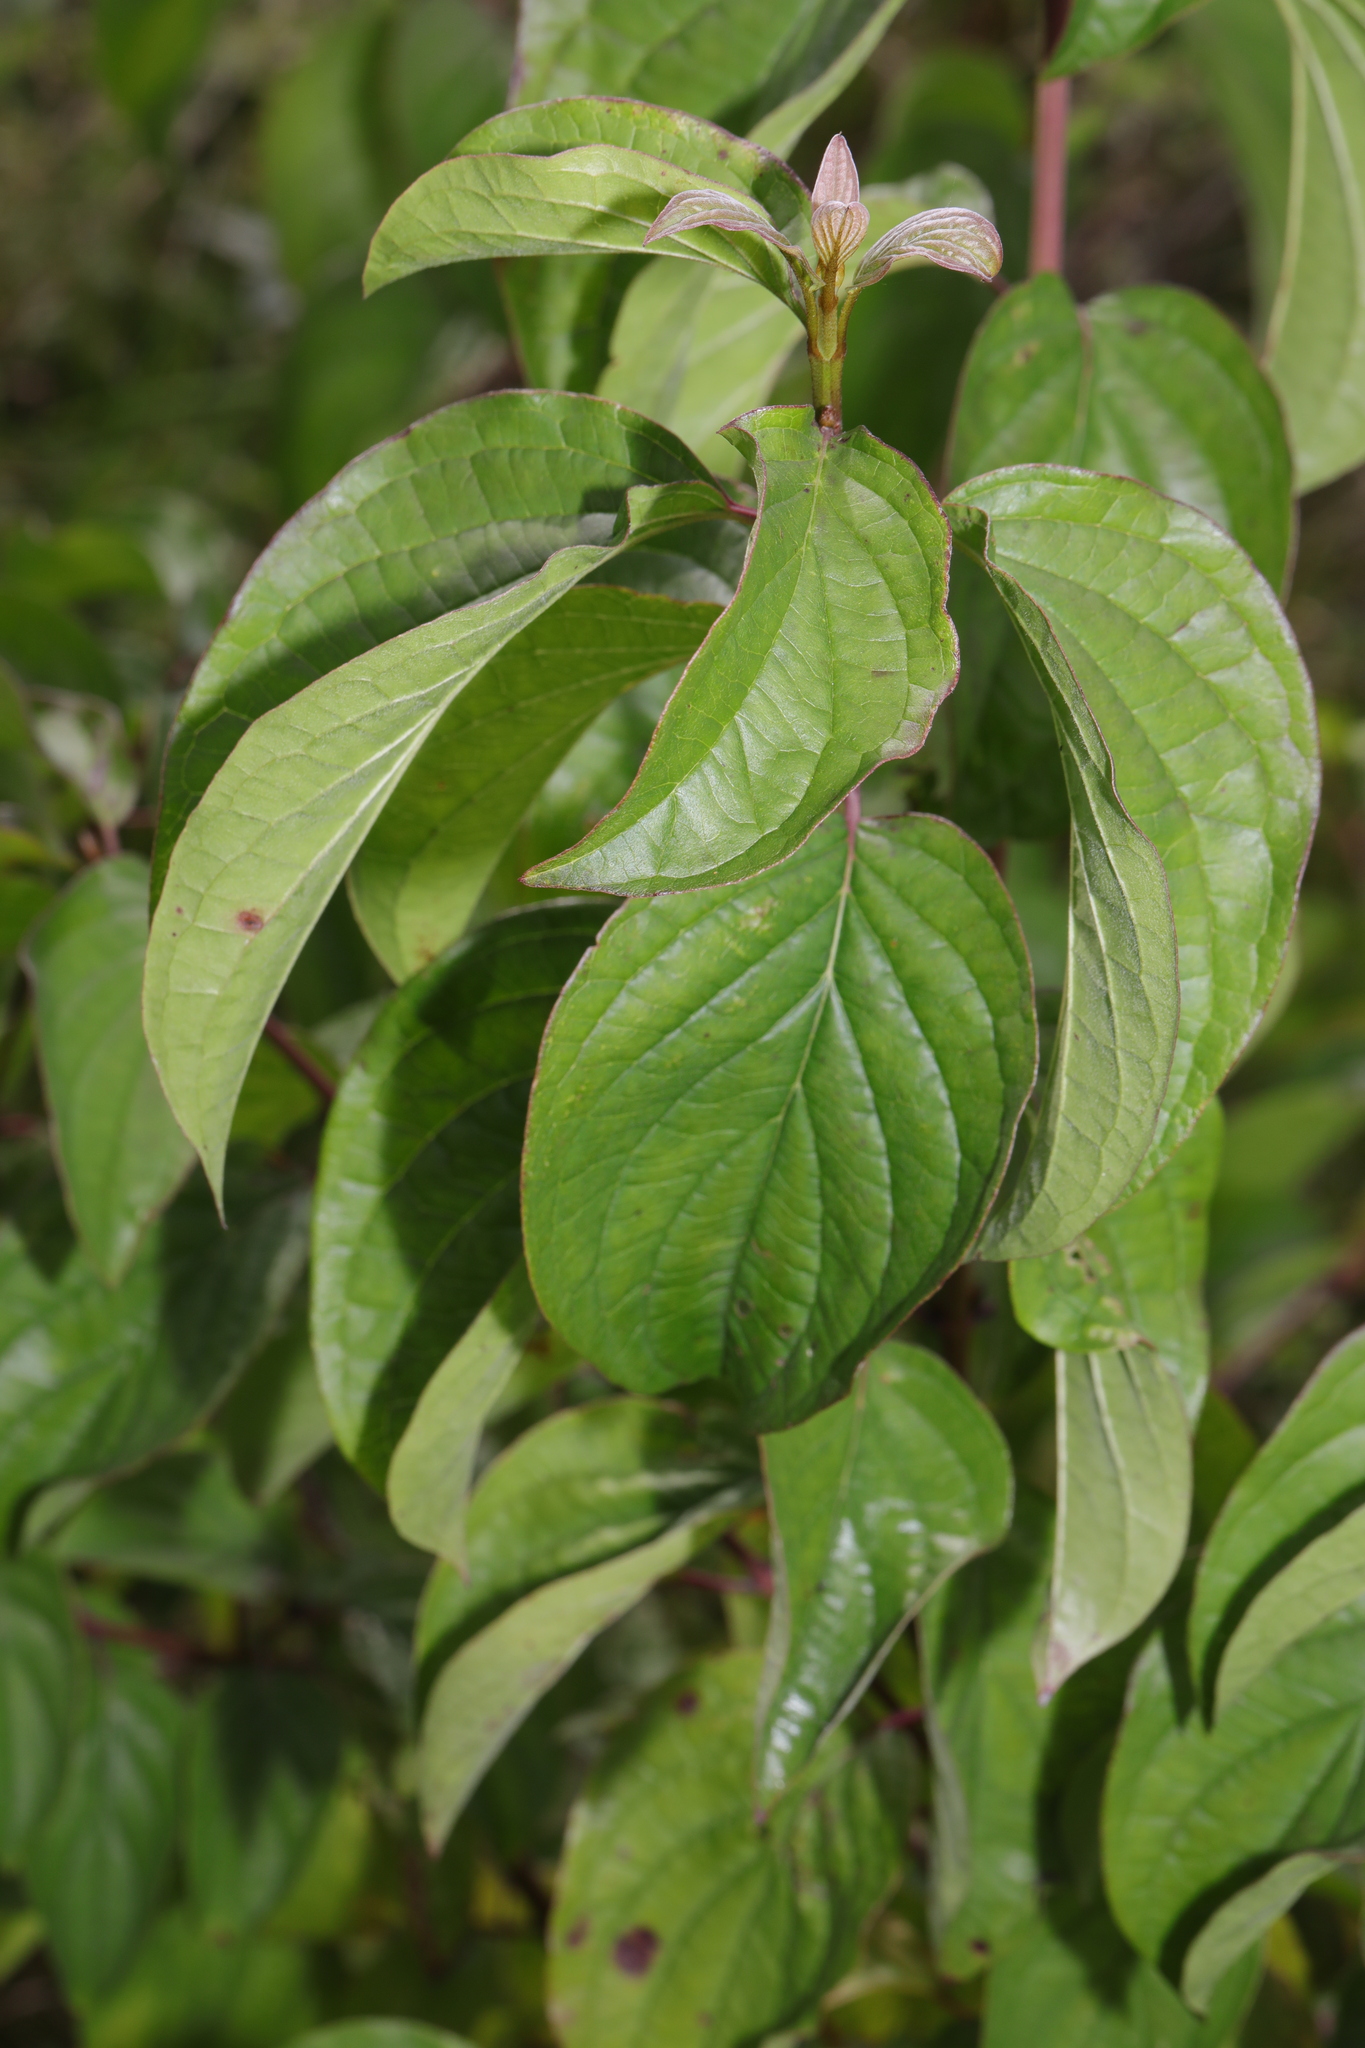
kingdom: Plantae
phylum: Tracheophyta
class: Magnoliopsida
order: Cornales
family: Cornaceae
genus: Cornus
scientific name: Cornus sanguinea
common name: Dogwood
